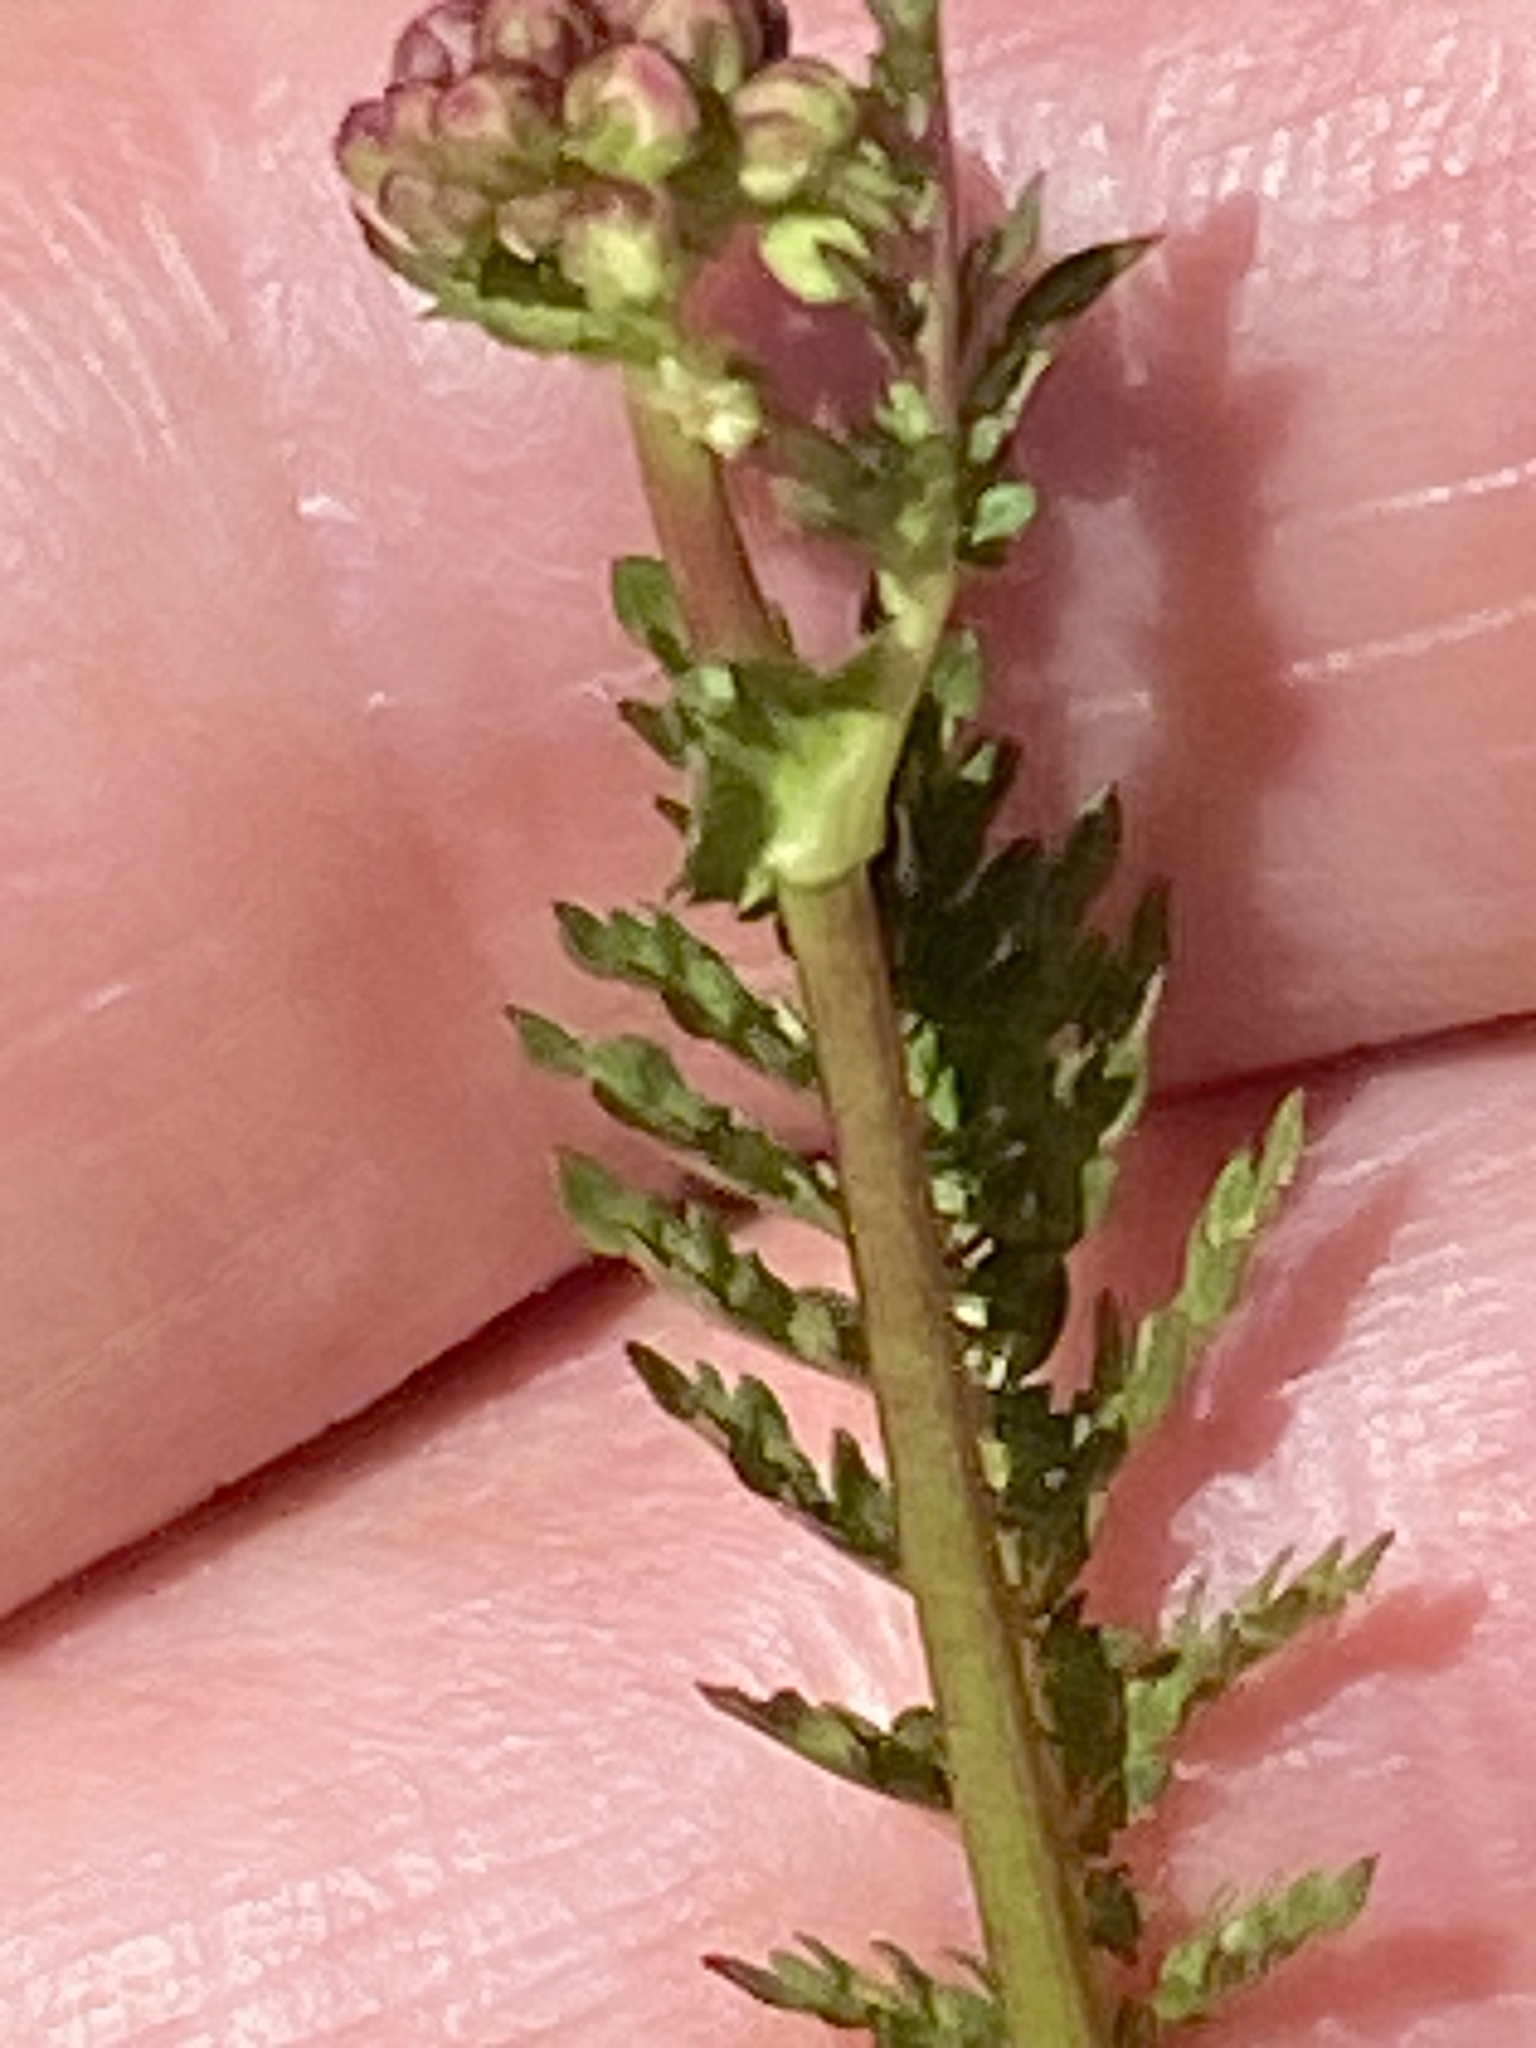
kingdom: Plantae
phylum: Tracheophyta
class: Magnoliopsida
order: Rosales
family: Rosaceae
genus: Filipendula
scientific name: Filipendula vulgaris
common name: Dropwort
